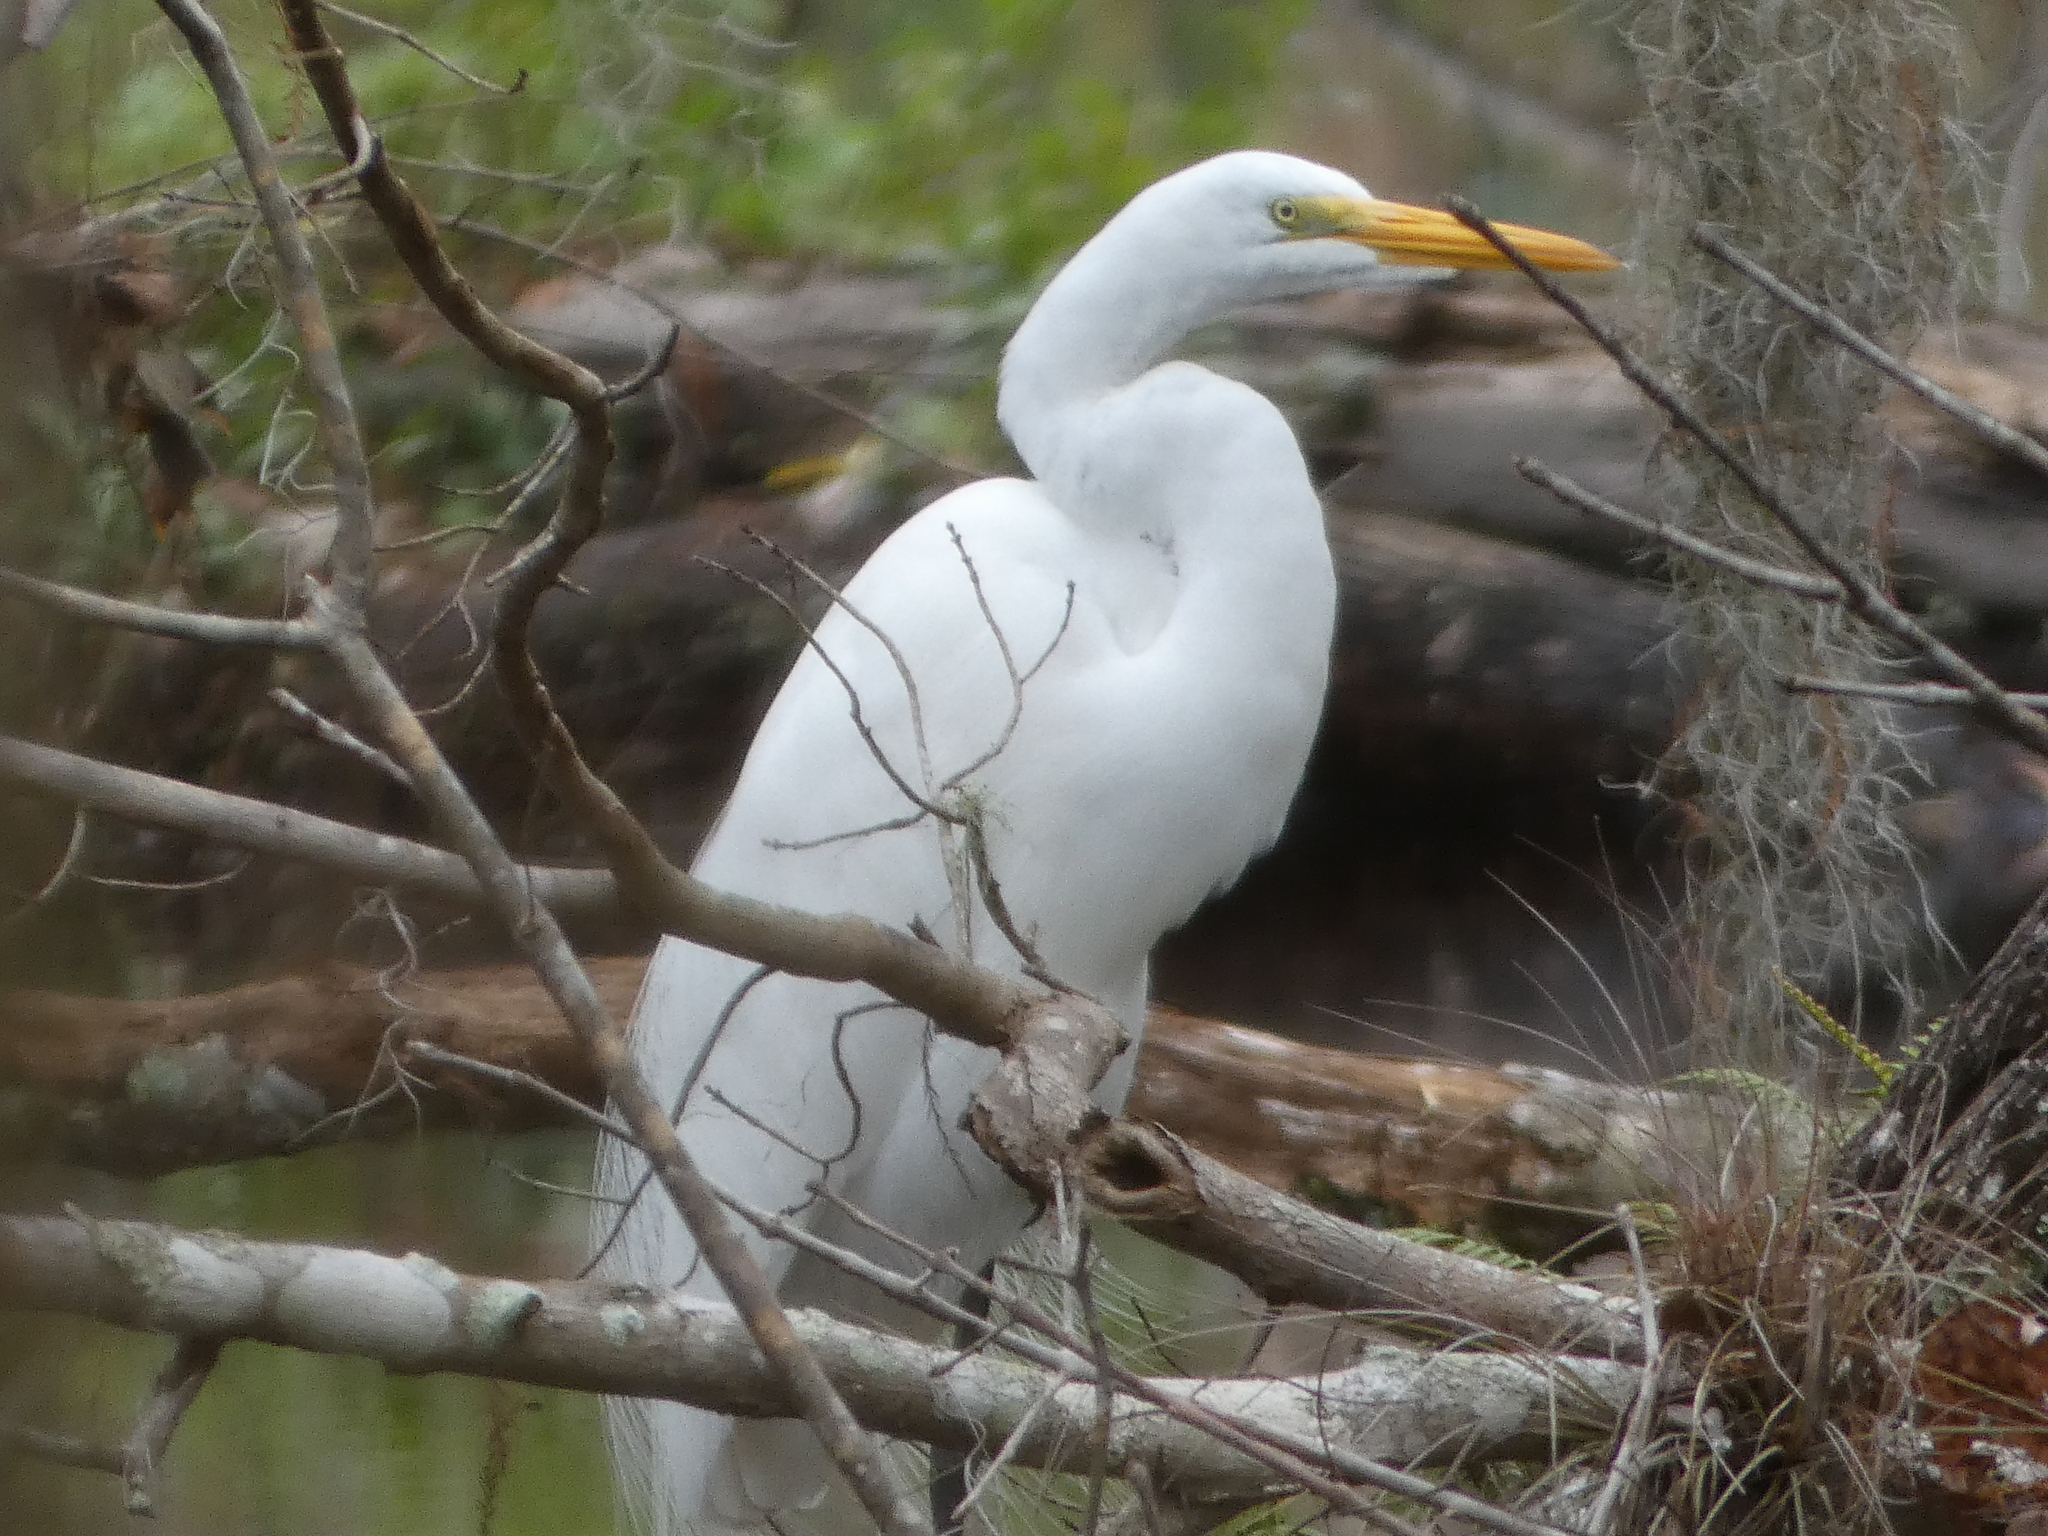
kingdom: Animalia
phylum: Chordata
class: Aves
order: Pelecaniformes
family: Ardeidae
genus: Ardea
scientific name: Ardea alba
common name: Great egret
